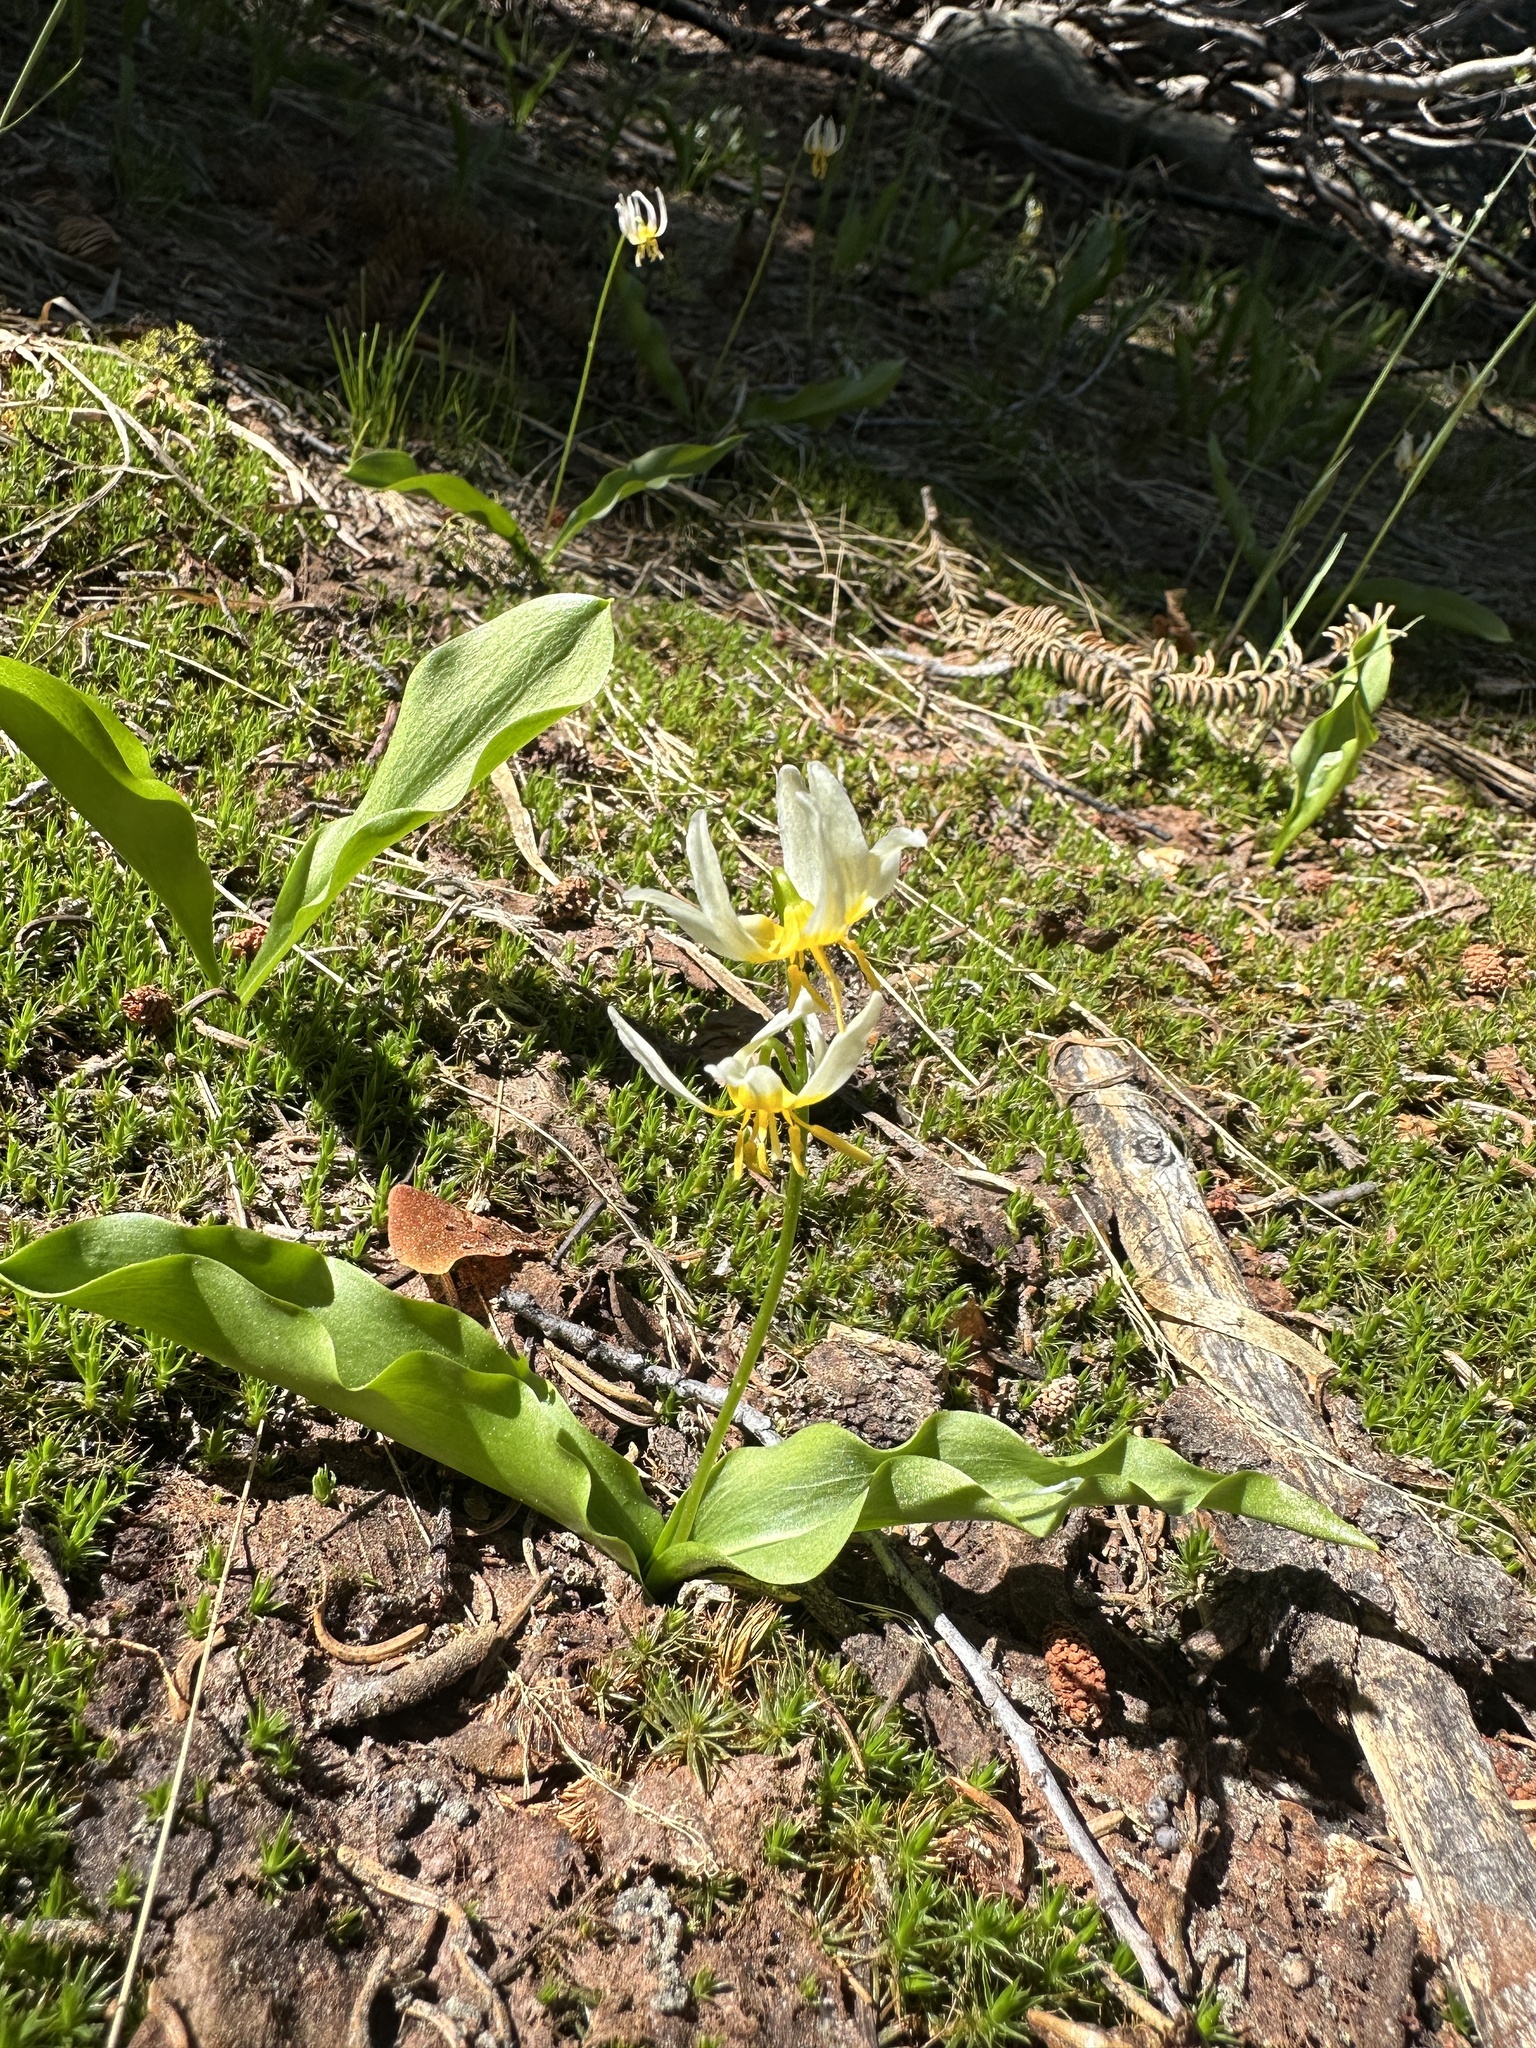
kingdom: Plantae
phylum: Tracheophyta
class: Liliopsida
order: Liliales
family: Liliaceae
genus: Erythronium
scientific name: Erythronium purpurascens
